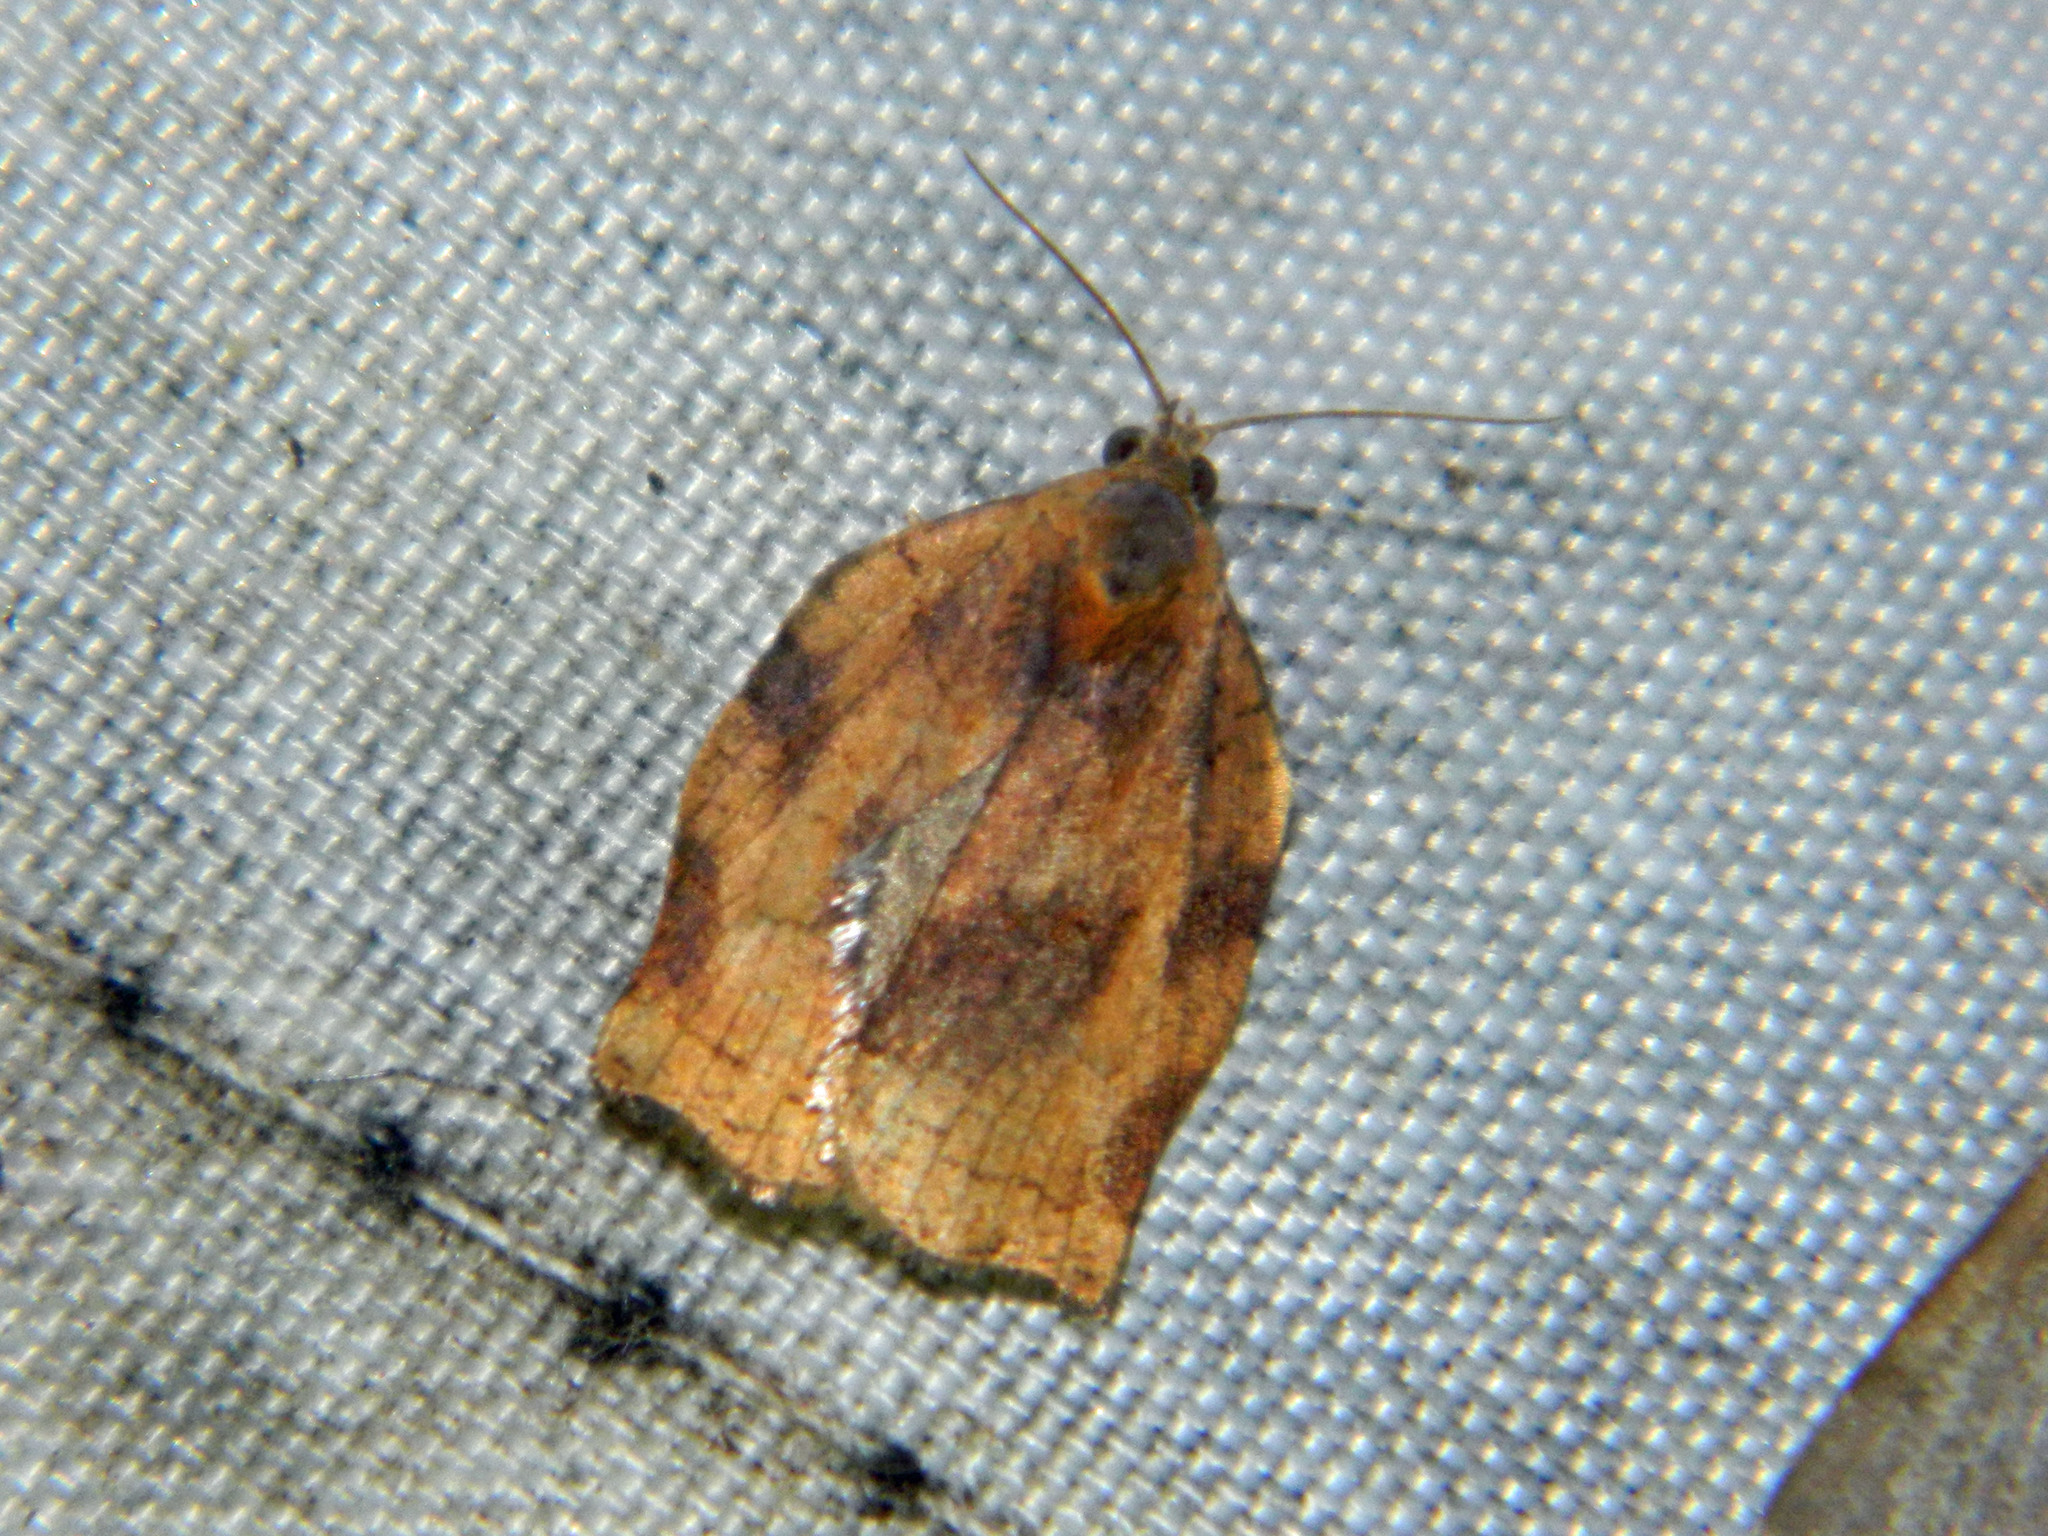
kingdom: Animalia
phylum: Arthropoda
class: Insecta
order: Lepidoptera
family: Tortricidae
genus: Archips
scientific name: Archips purpurana
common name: Omnivorous leafroller
